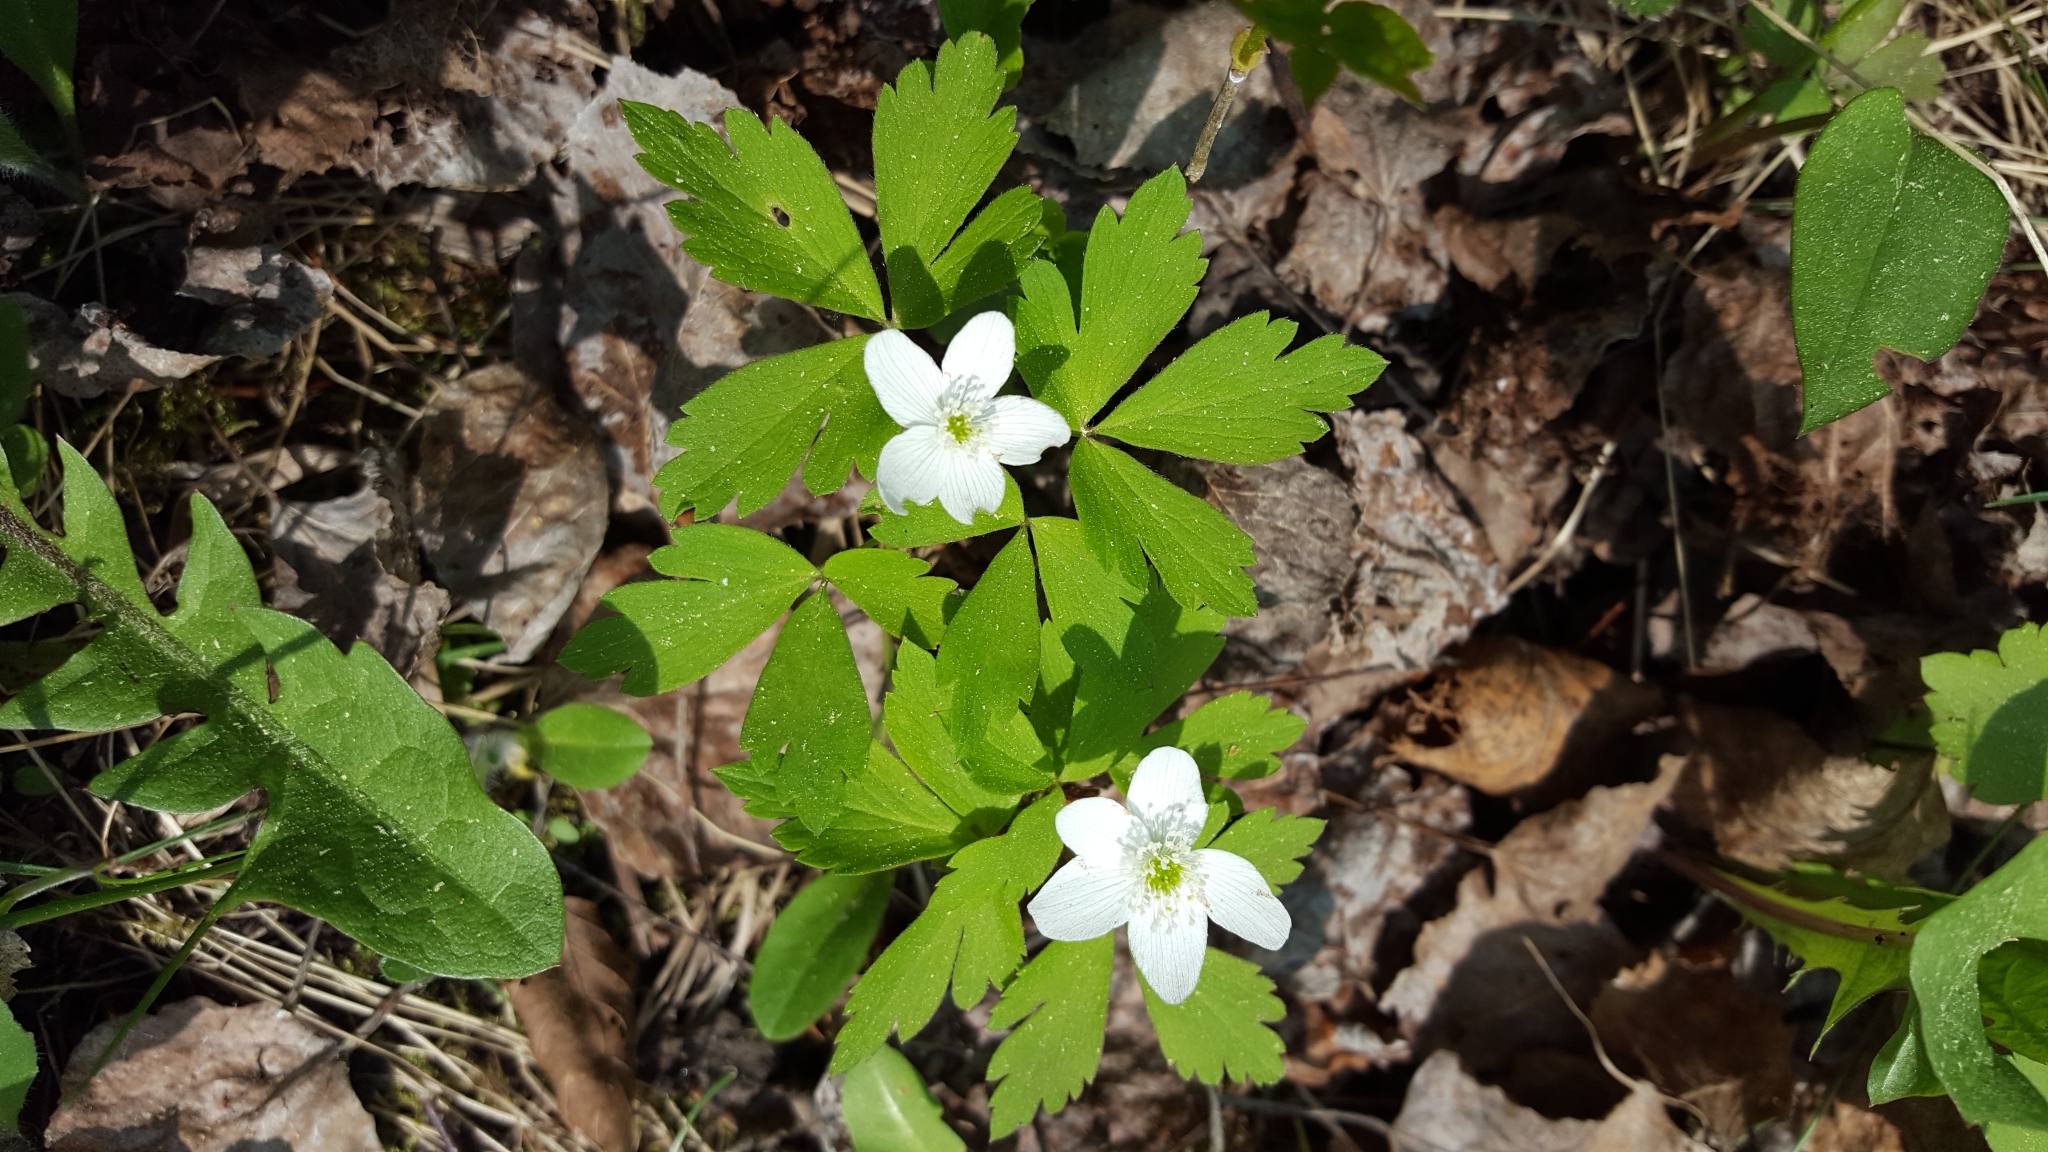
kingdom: Plantae
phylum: Tracheophyta
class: Magnoliopsida
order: Ranunculales
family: Ranunculaceae
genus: Anemone
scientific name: Anemone quinquefolia
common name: Wood anemone
